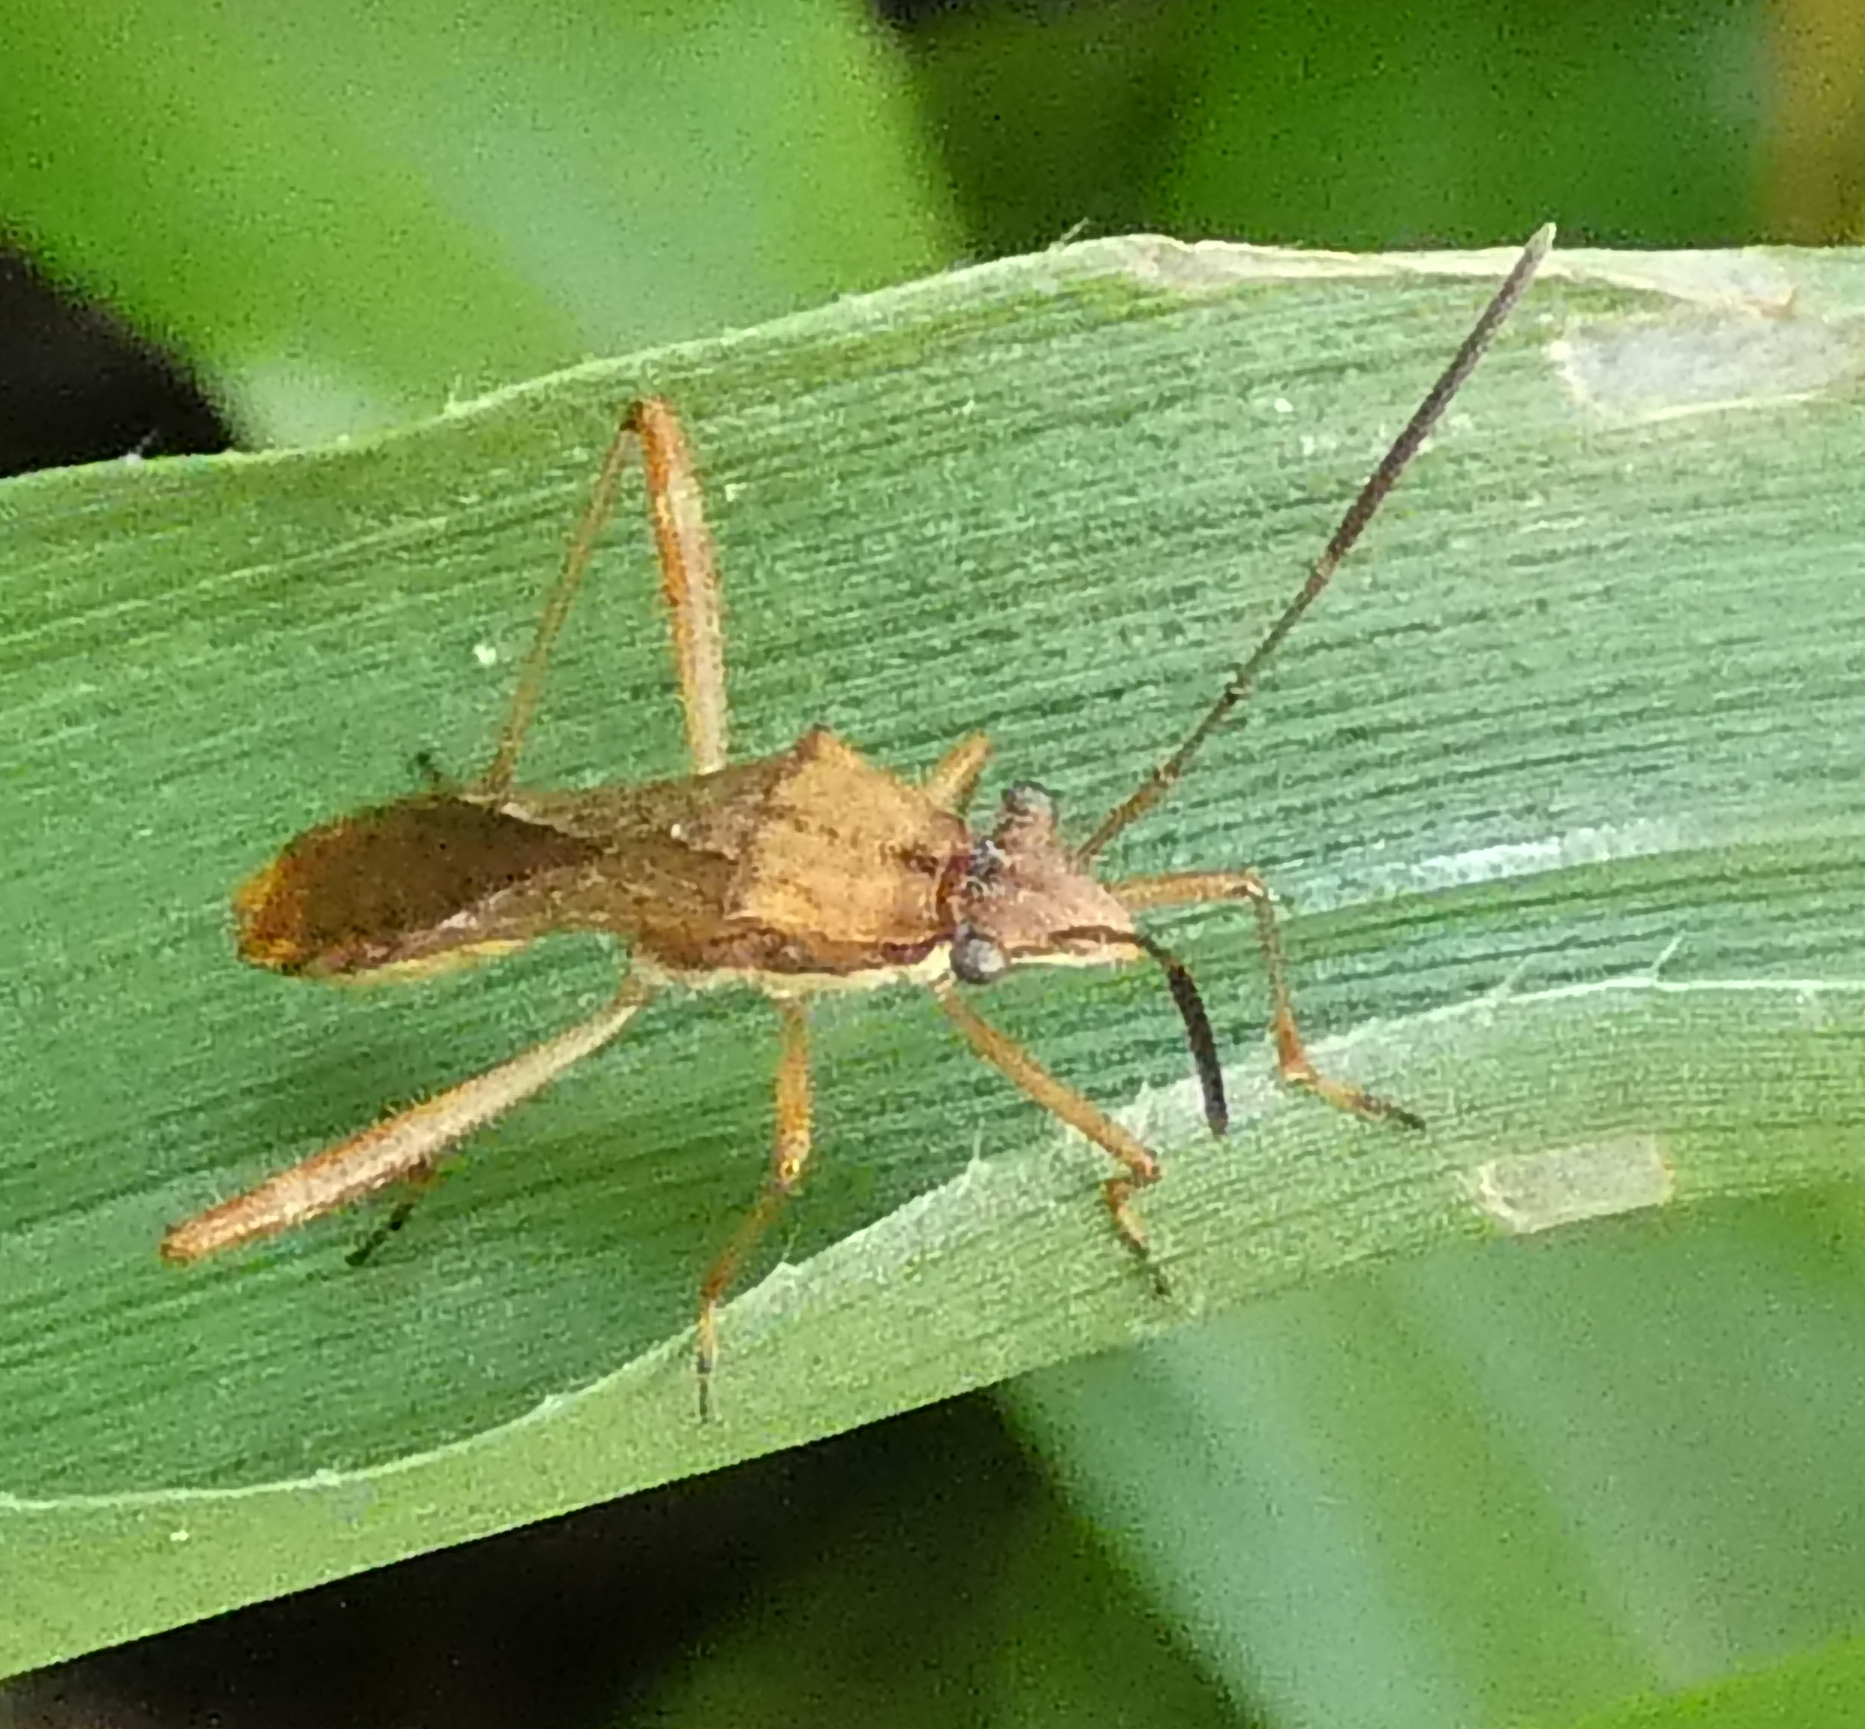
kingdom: Animalia
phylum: Arthropoda
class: Insecta
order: Hemiptera
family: Alydidae
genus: Neomegalotomus
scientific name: Neomegalotomus parvus
